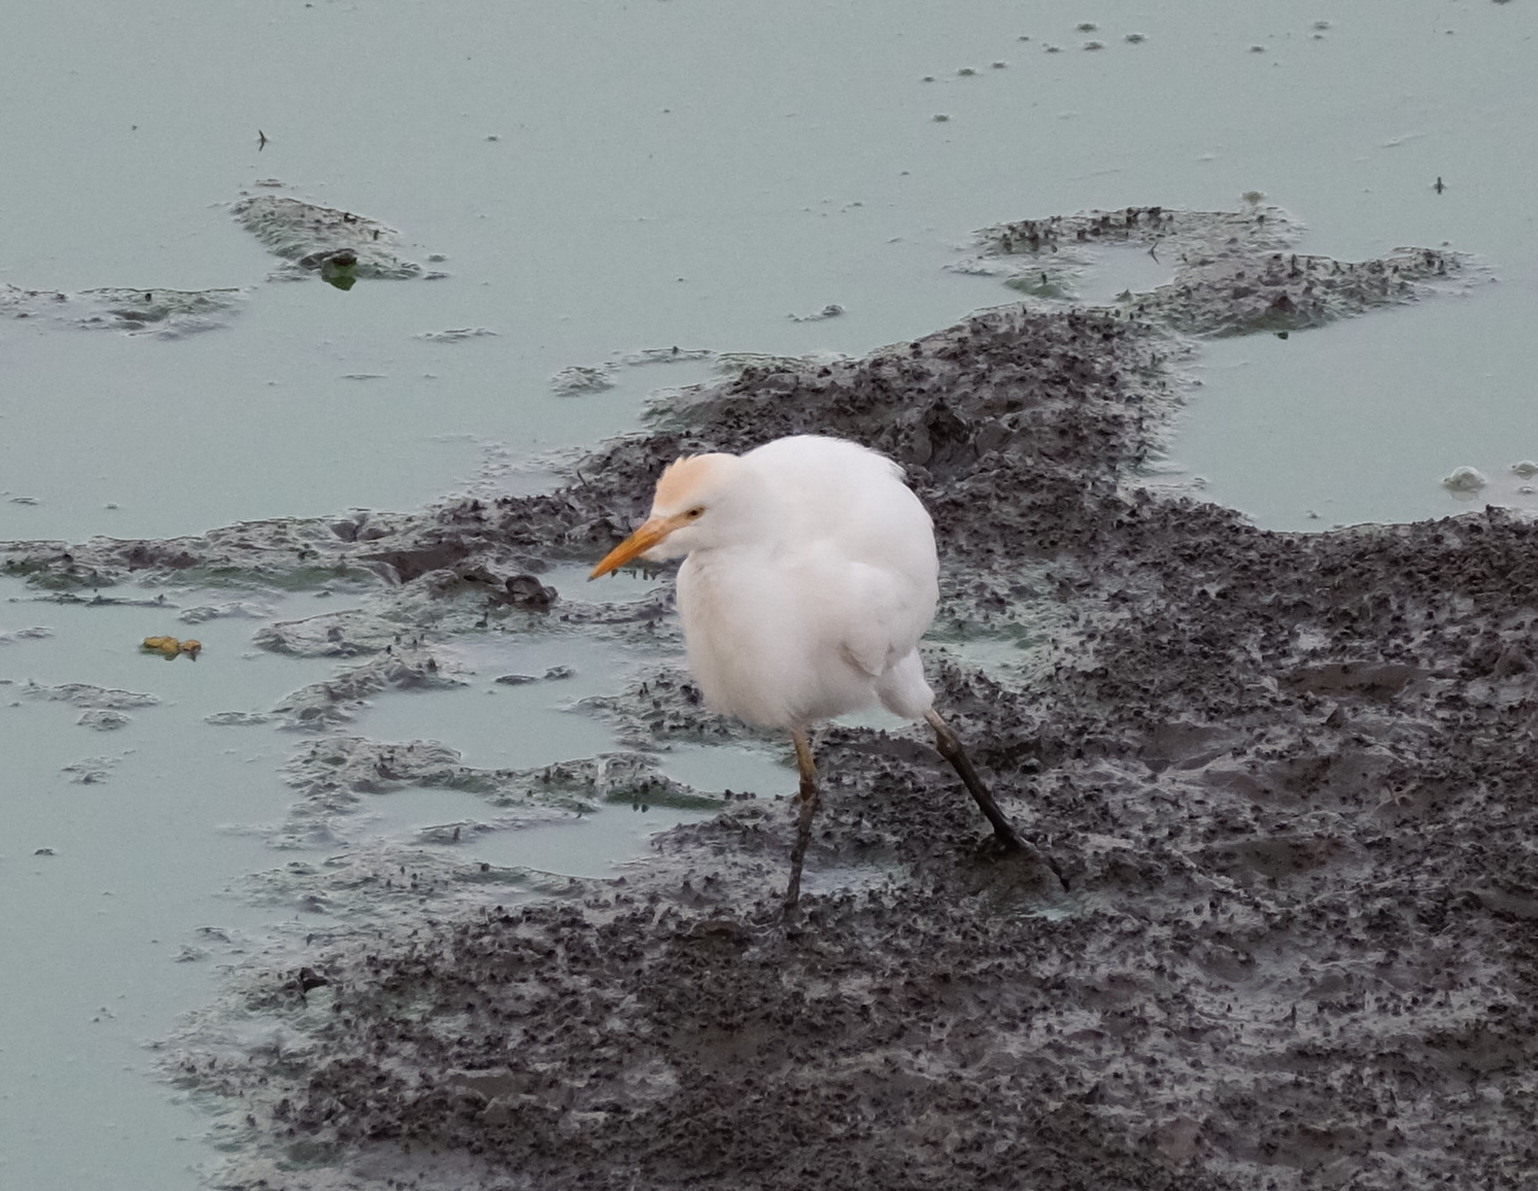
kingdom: Animalia
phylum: Chordata
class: Aves
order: Pelecaniformes
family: Ardeidae
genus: Bubulcus
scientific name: Bubulcus ibis
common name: Cattle egret
